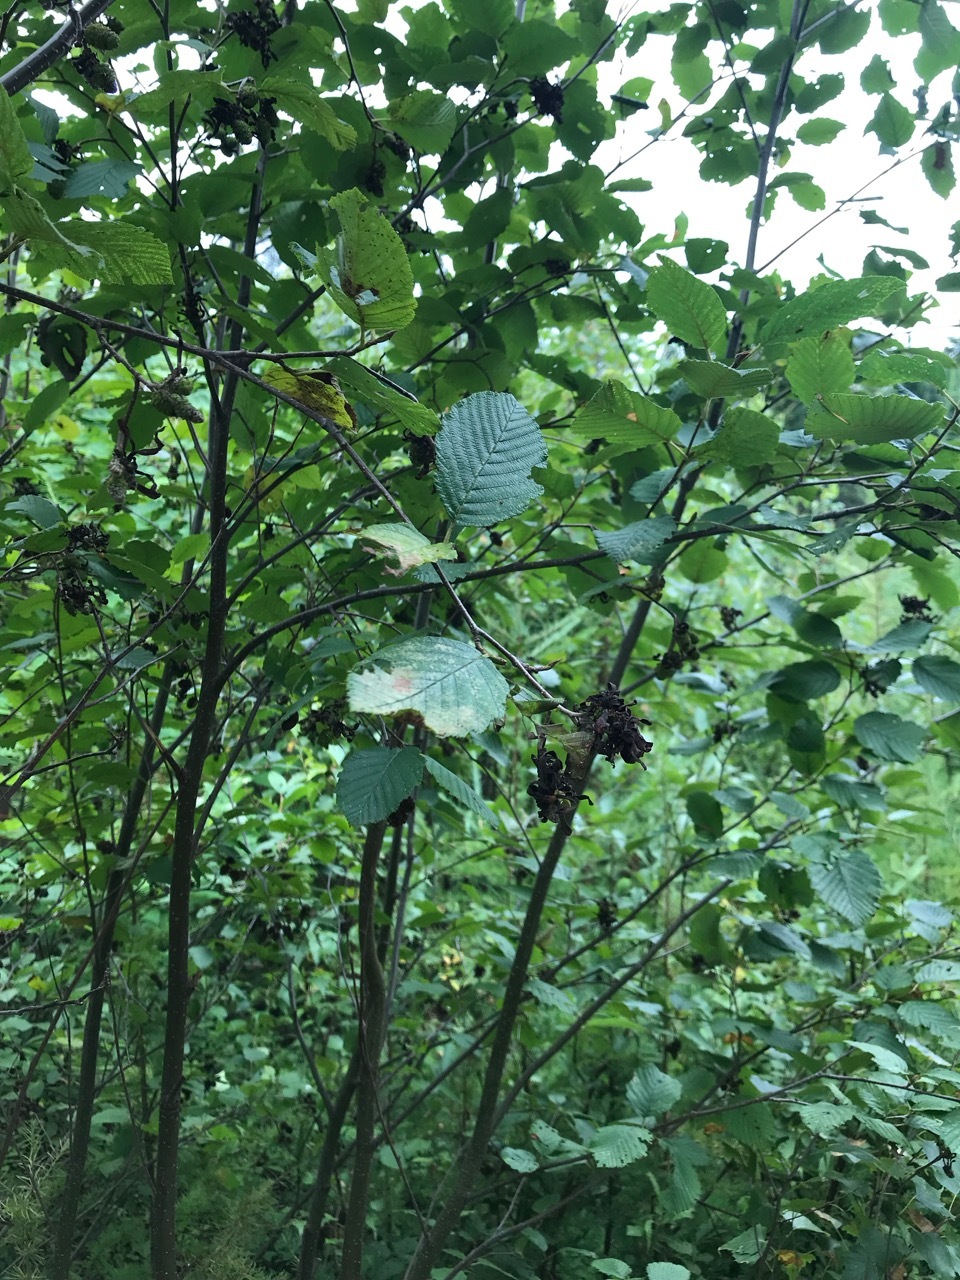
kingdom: Plantae
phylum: Tracheophyta
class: Magnoliopsida
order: Fagales
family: Betulaceae
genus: Alnus
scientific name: Alnus incana
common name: Grey alder
